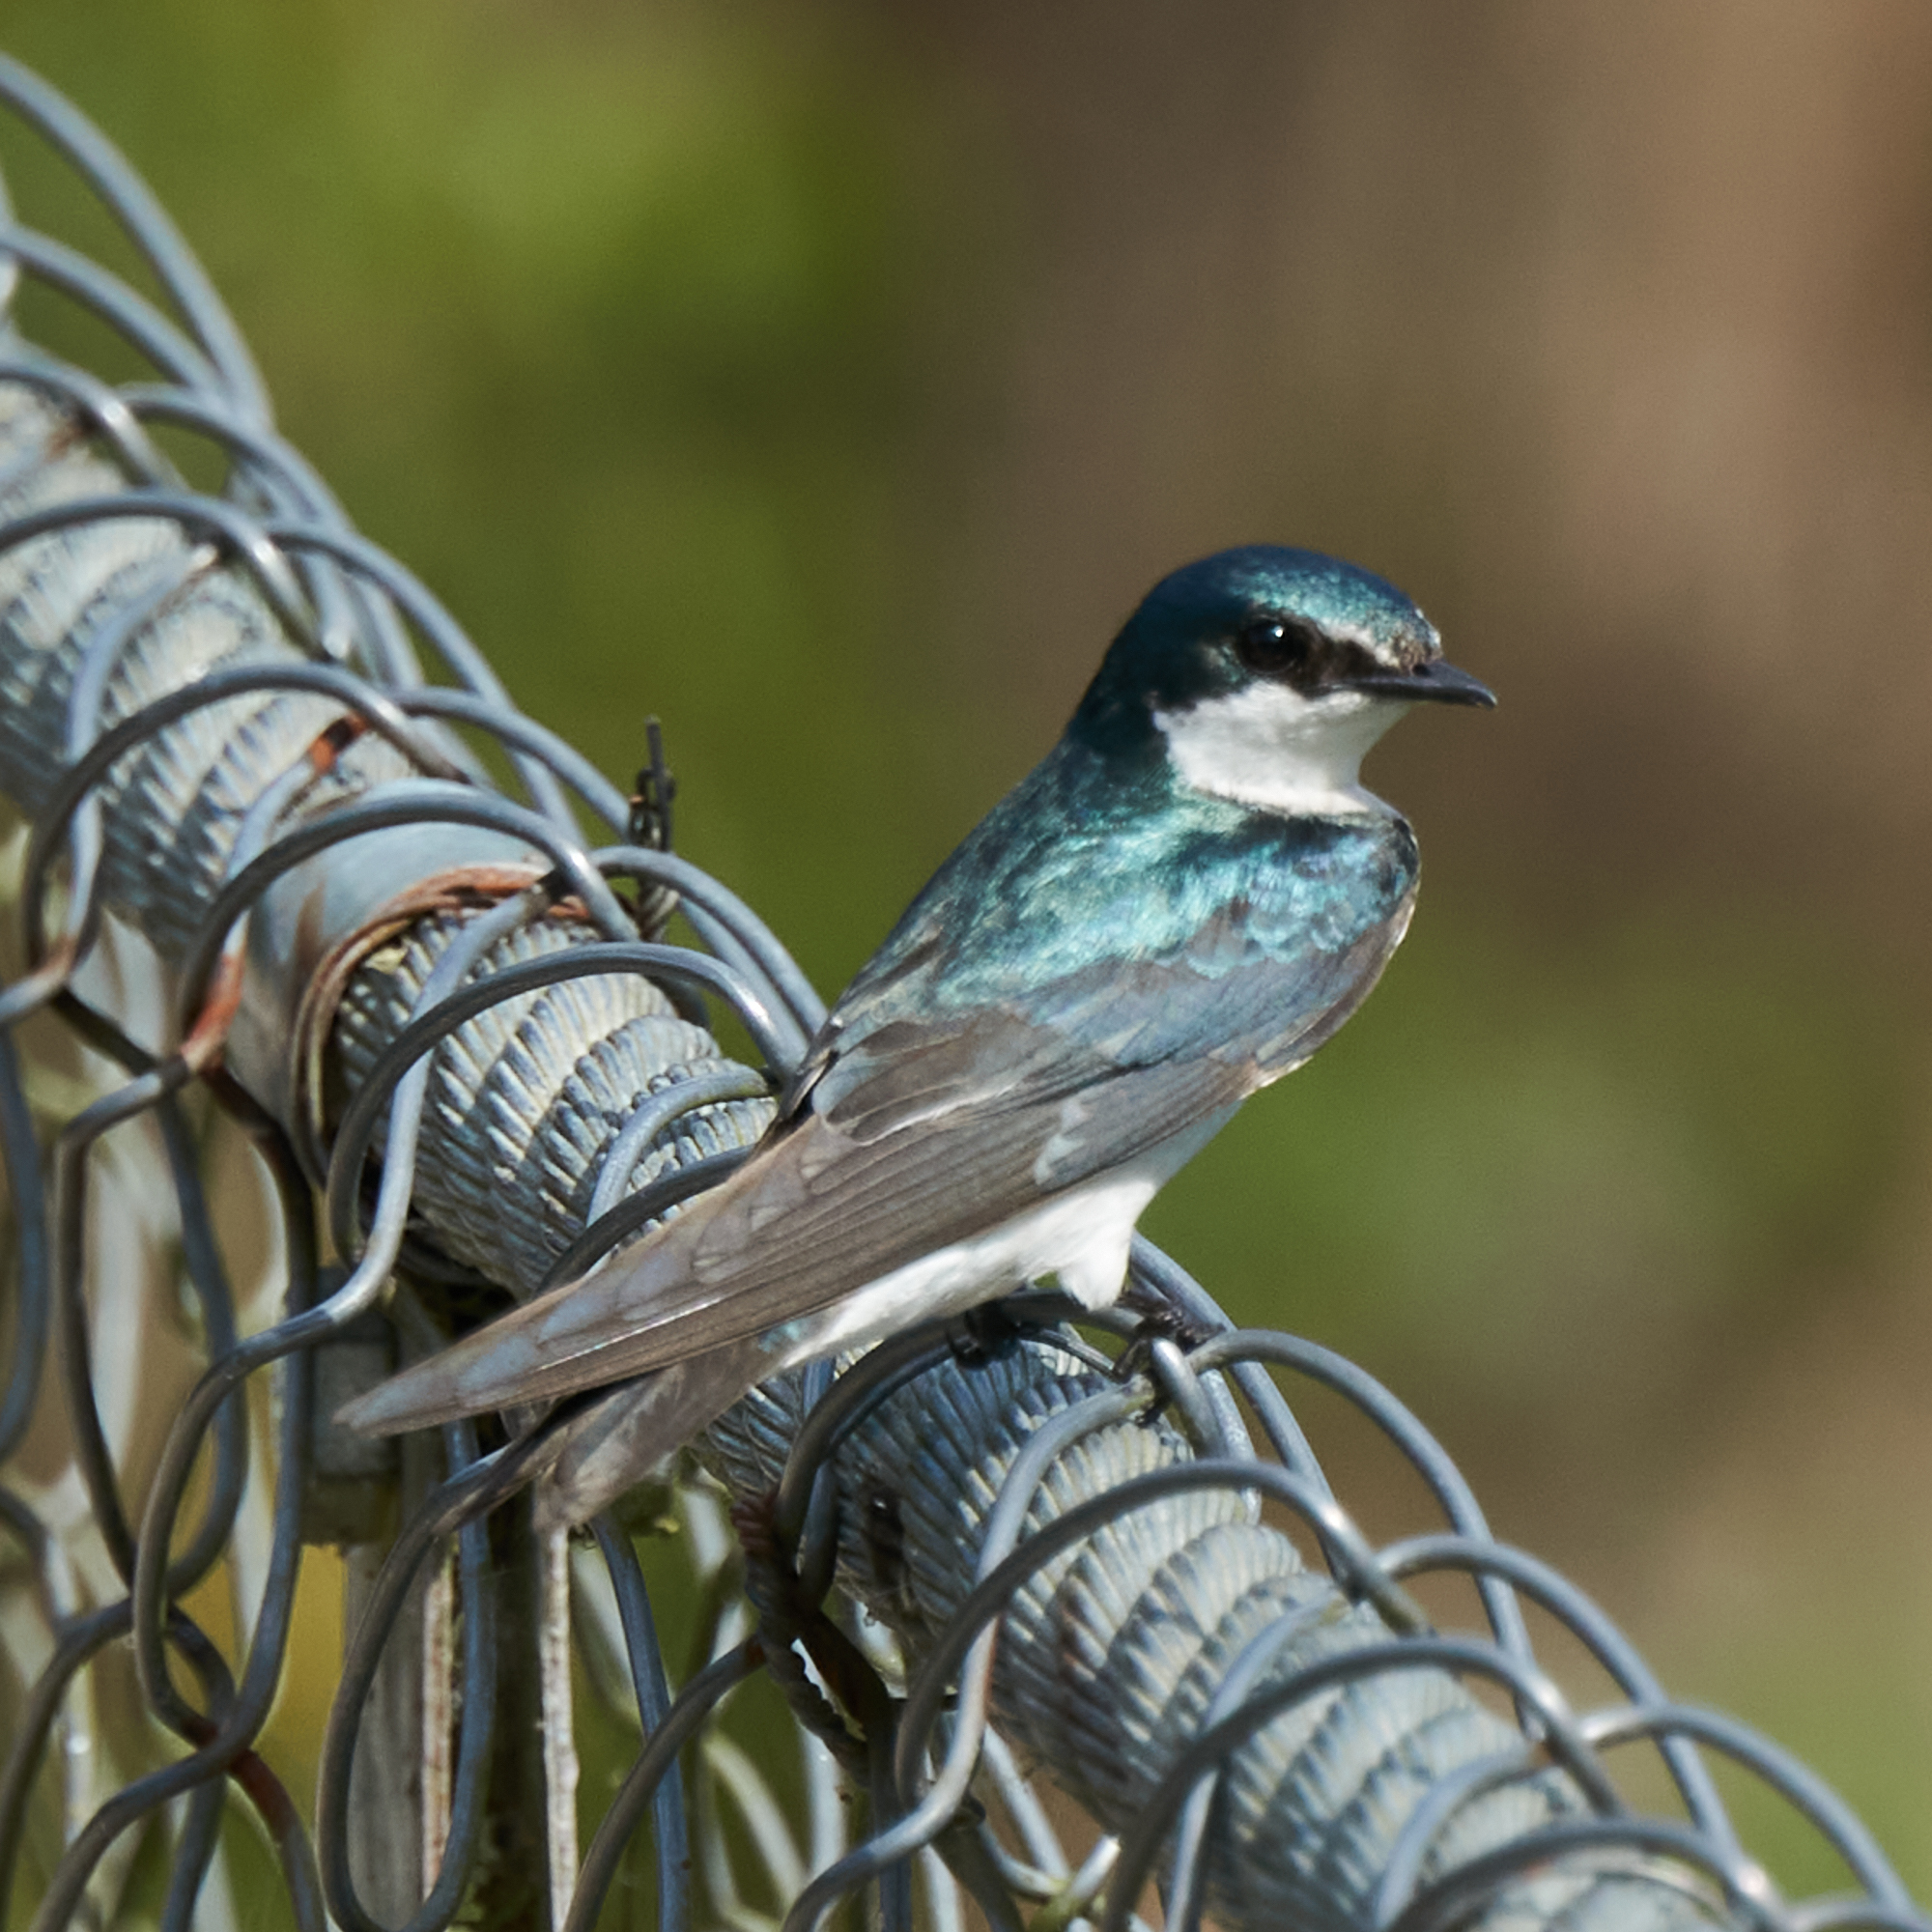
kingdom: Animalia
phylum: Chordata
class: Aves
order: Passeriformes
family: Hirundinidae
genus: Tachycineta
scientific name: Tachycineta albilinea
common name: Mangrove swallow
